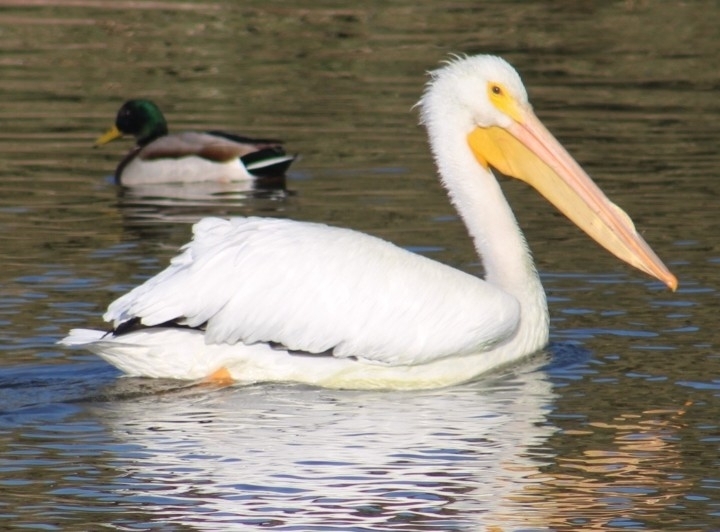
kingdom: Animalia
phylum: Chordata
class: Aves
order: Pelecaniformes
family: Pelecanidae
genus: Pelecanus
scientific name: Pelecanus erythrorhynchos
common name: American white pelican
